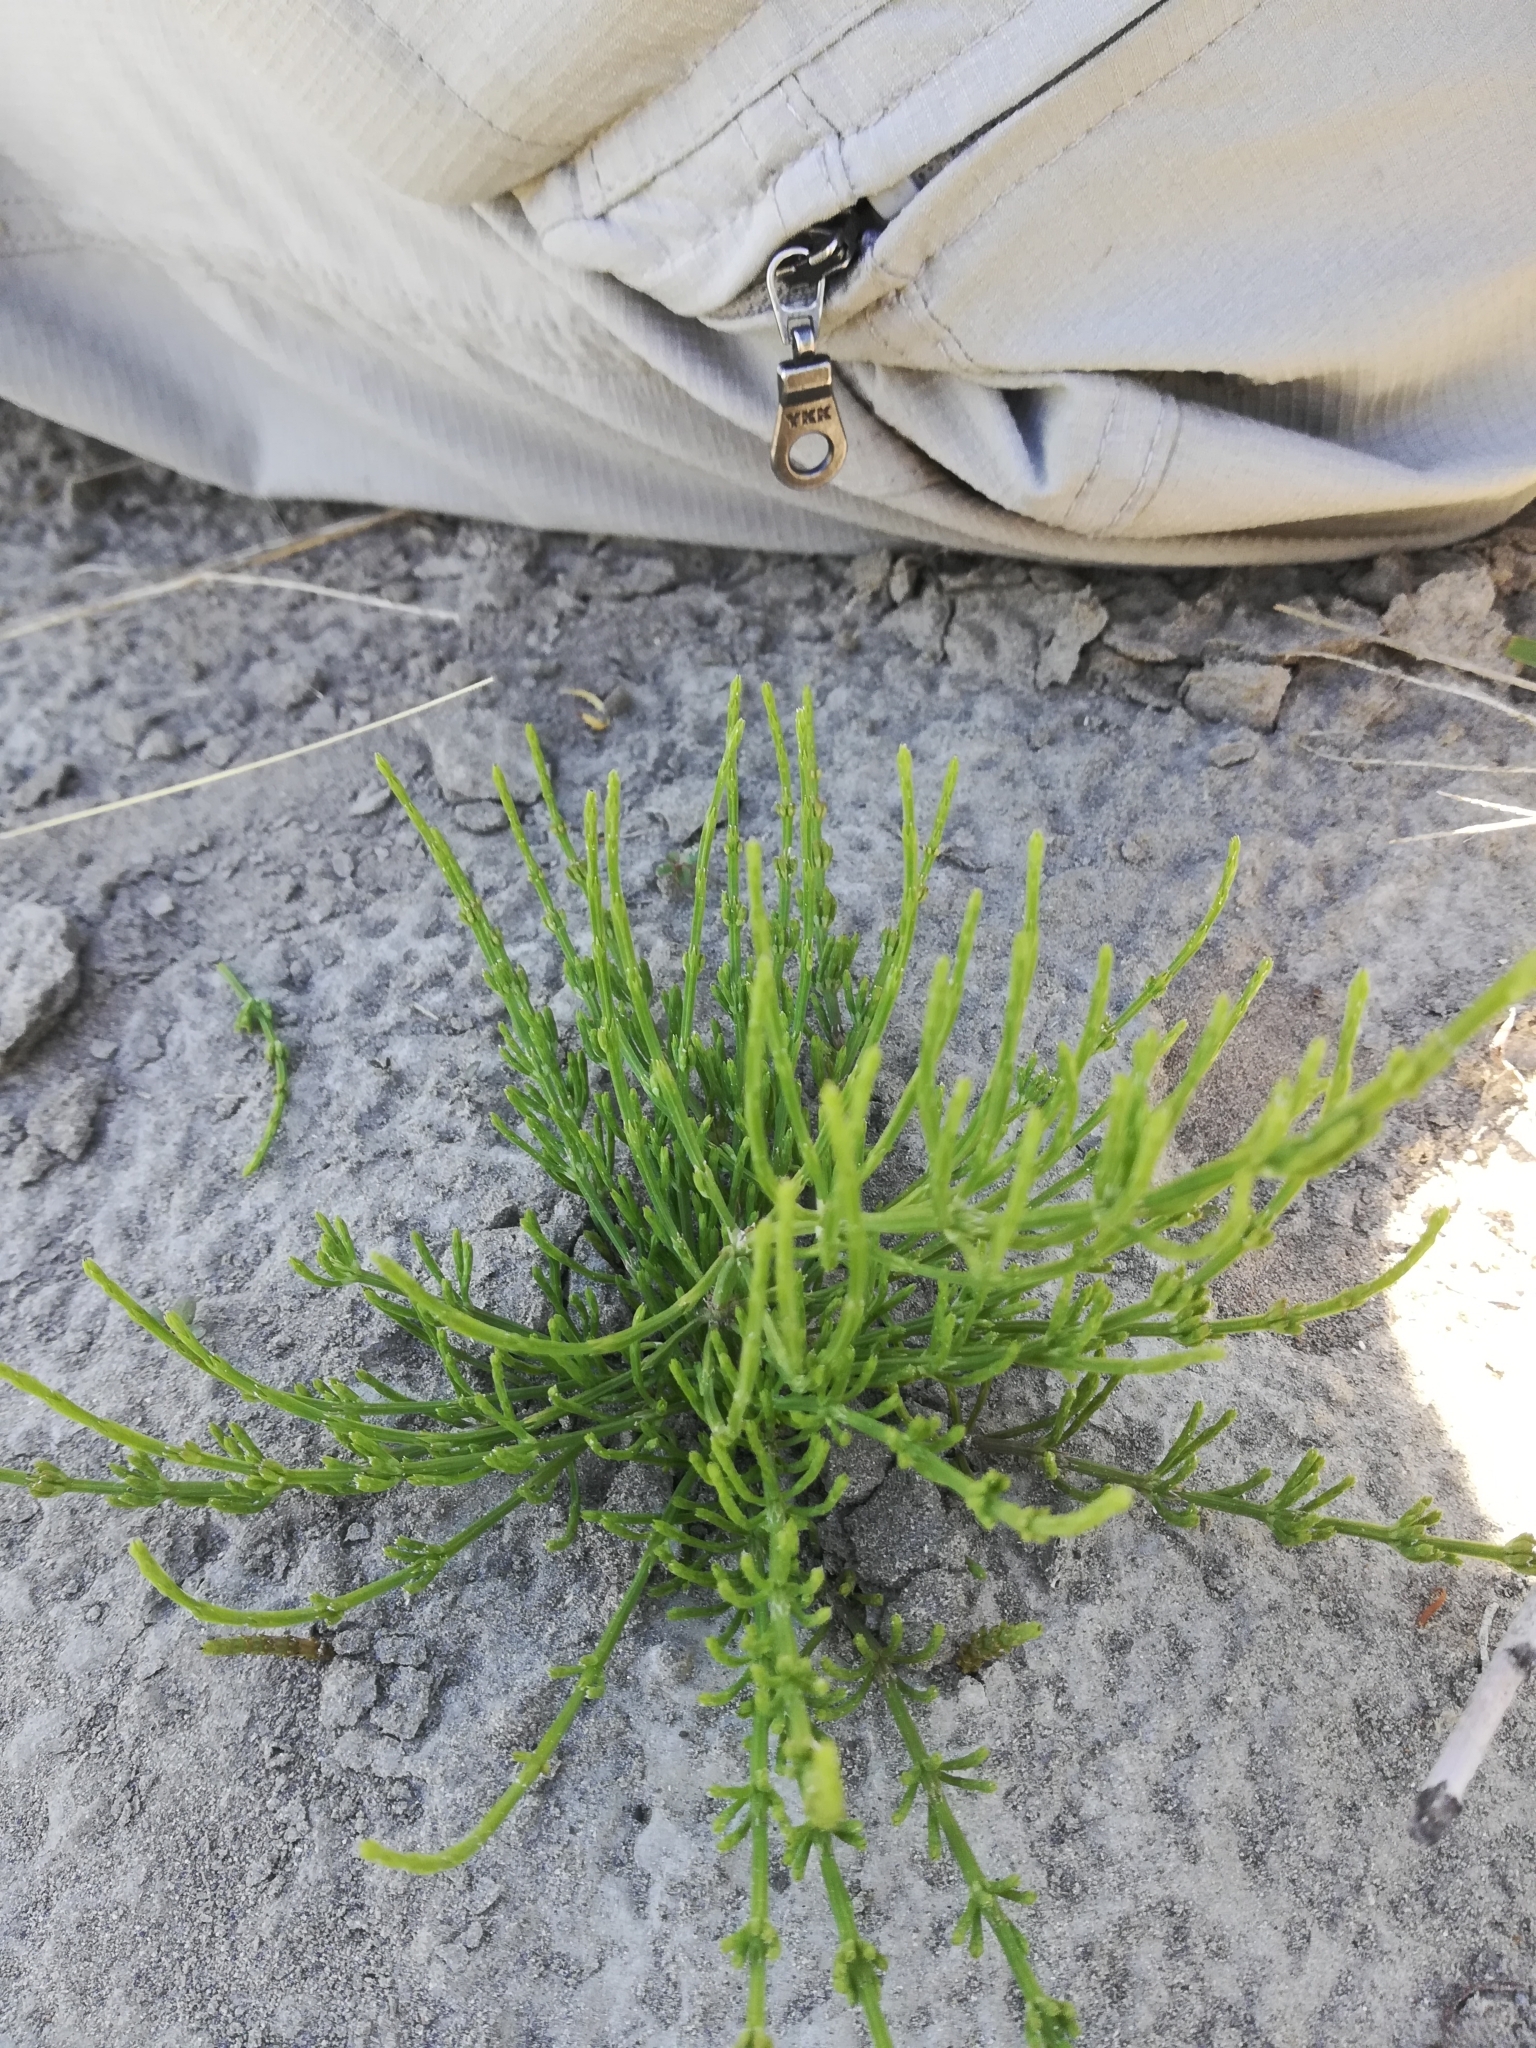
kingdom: Plantae
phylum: Tracheophyta
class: Polypodiopsida
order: Equisetales
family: Equisetaceae
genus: Equisetum
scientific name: Equisetum arvense
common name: Field horsetail
